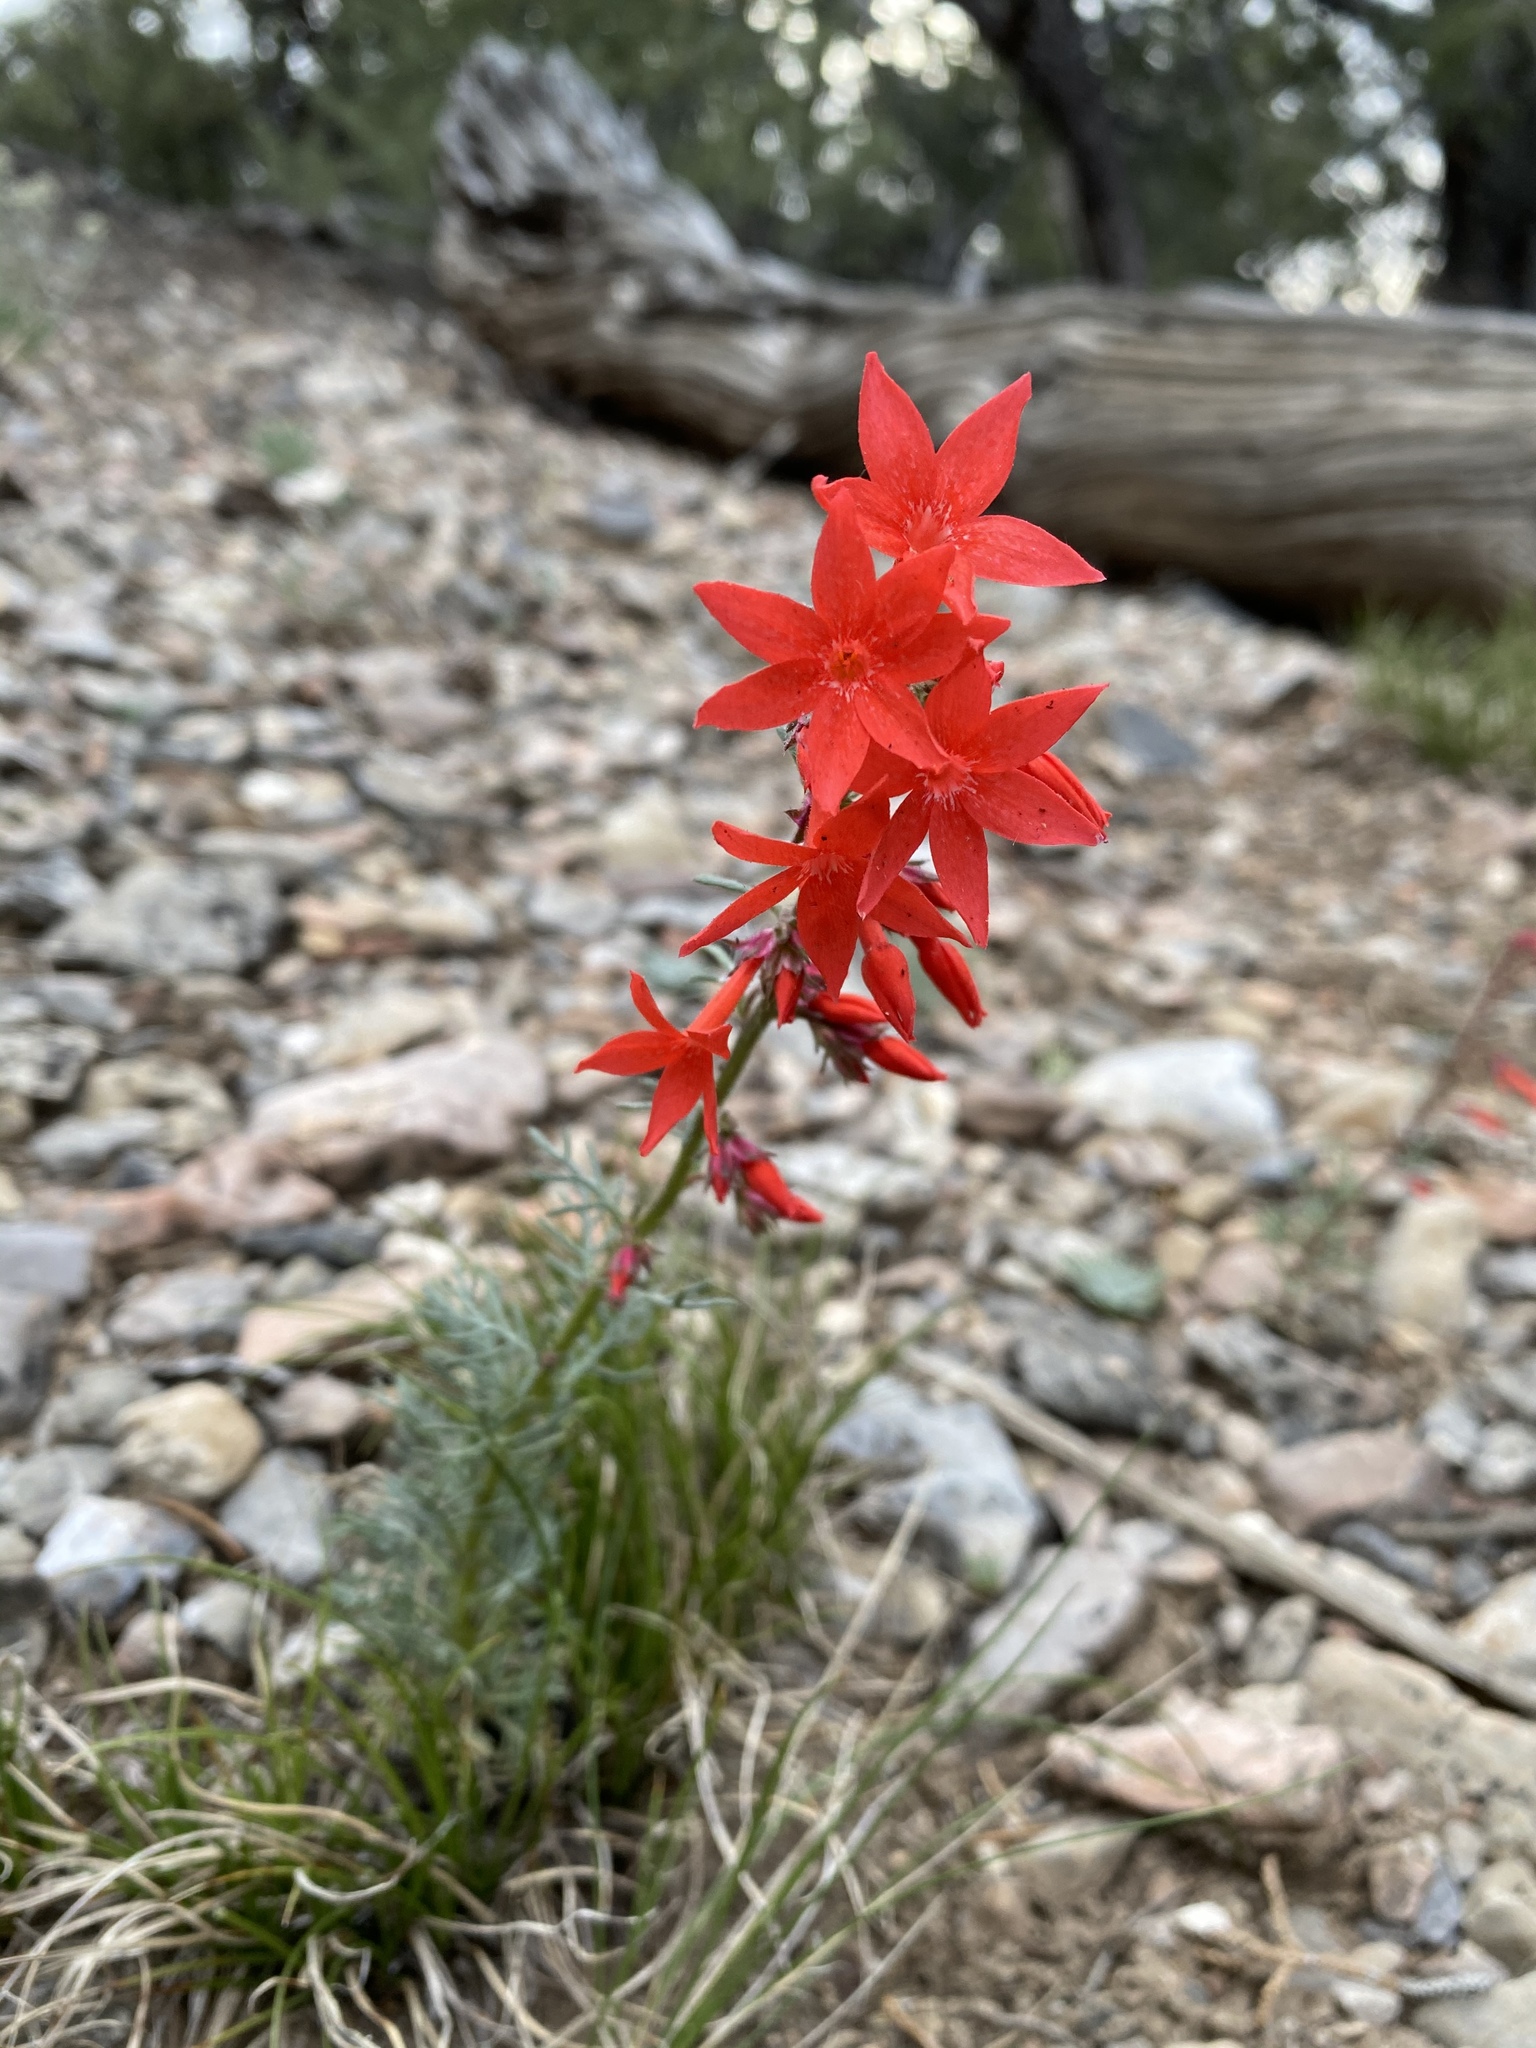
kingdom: Plantae
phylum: Tracheophyta
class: Magnoliopsida
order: Ericales
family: Polemoniaceae
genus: Ipomopsis
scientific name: Ipomopsis arizonica
